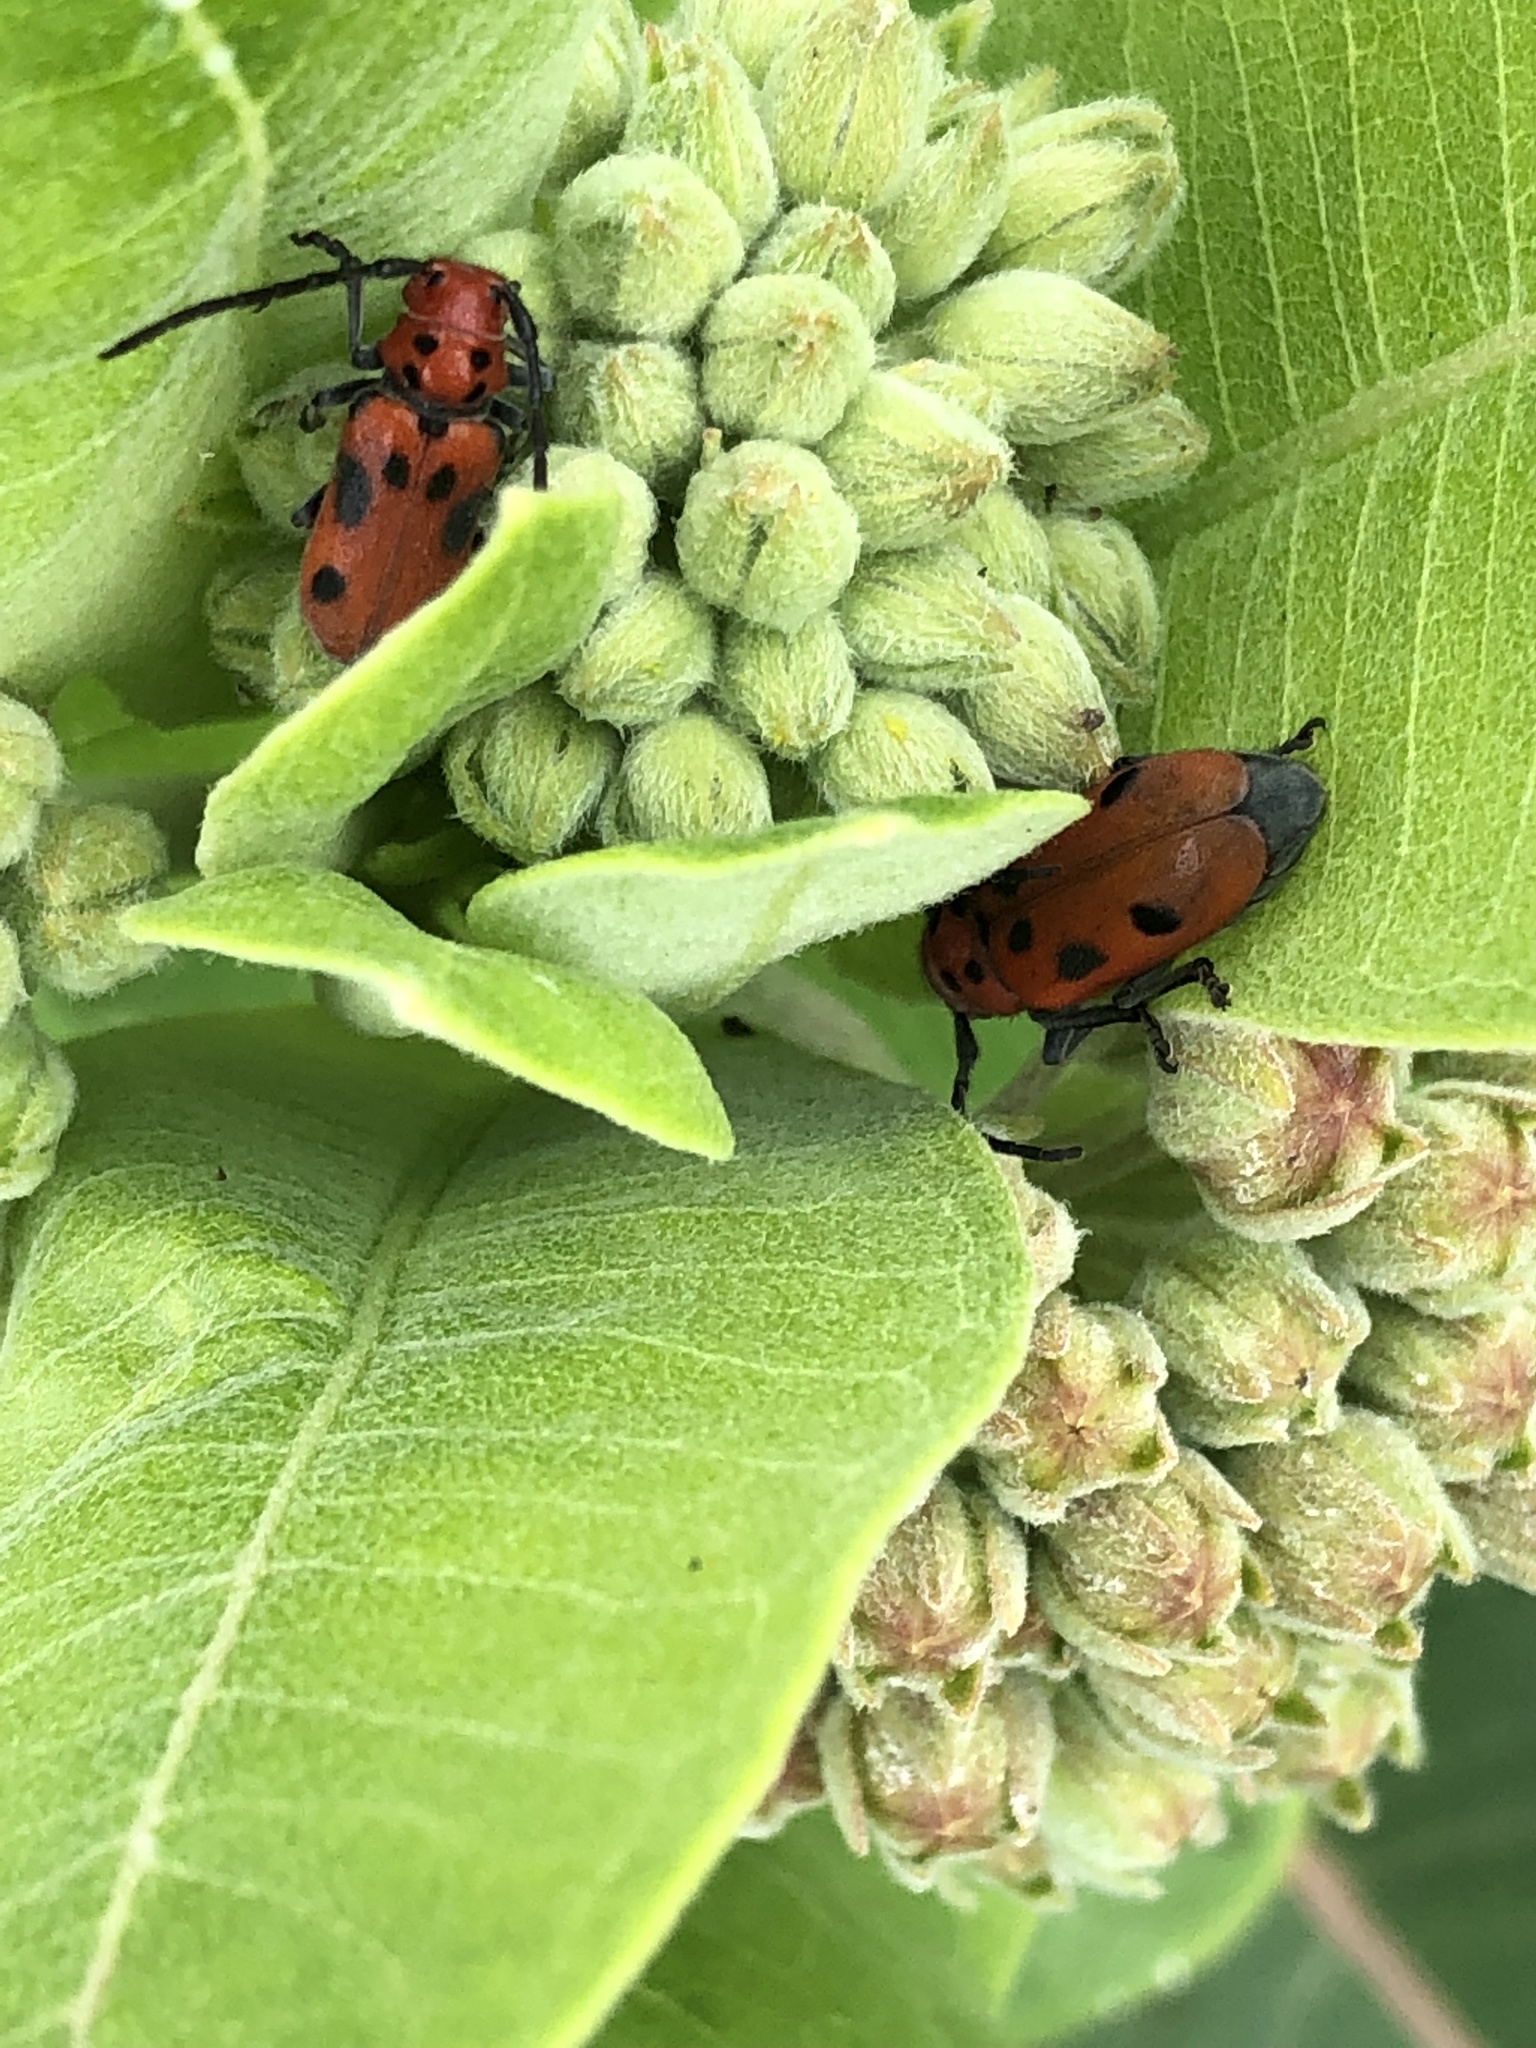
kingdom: Animalia
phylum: Arthropoda
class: Insecta
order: Coleoptera
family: Cerambycidae
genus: Tetraopes
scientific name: Tetraopes tetrophthalmus
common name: Red milkweed beetle
